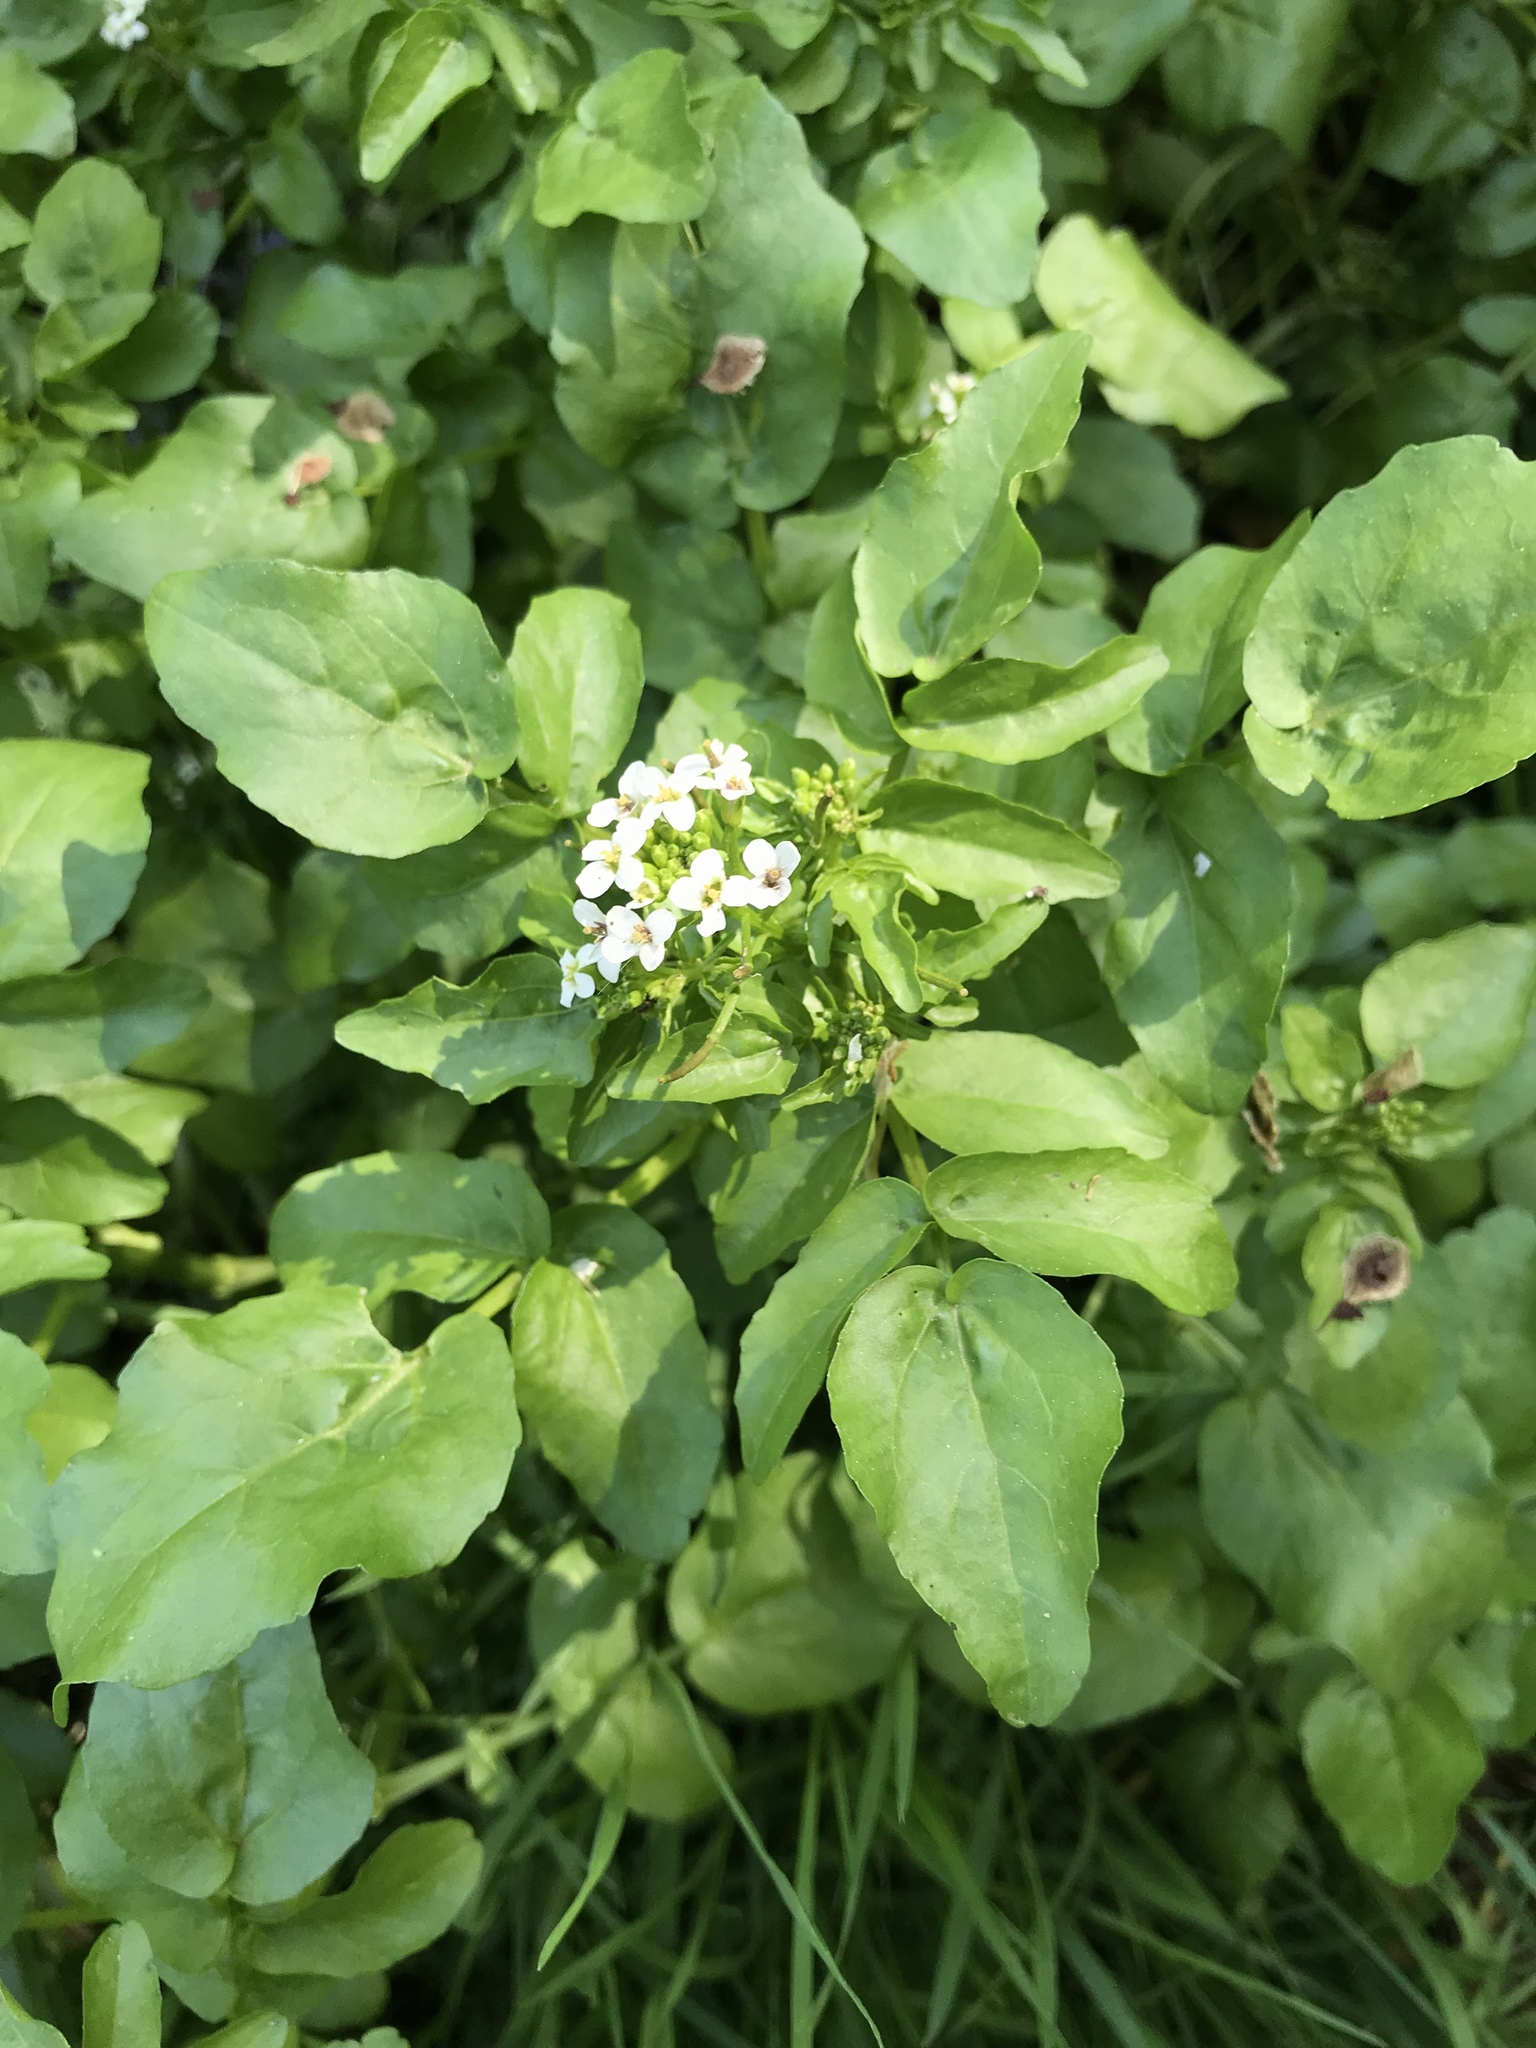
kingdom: Plantae
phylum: Tracheophyta
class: Magnoliopsida
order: Brassicales
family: Brassicaceae
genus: Nasturtium
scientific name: Nasturtium officinale
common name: Watercress
